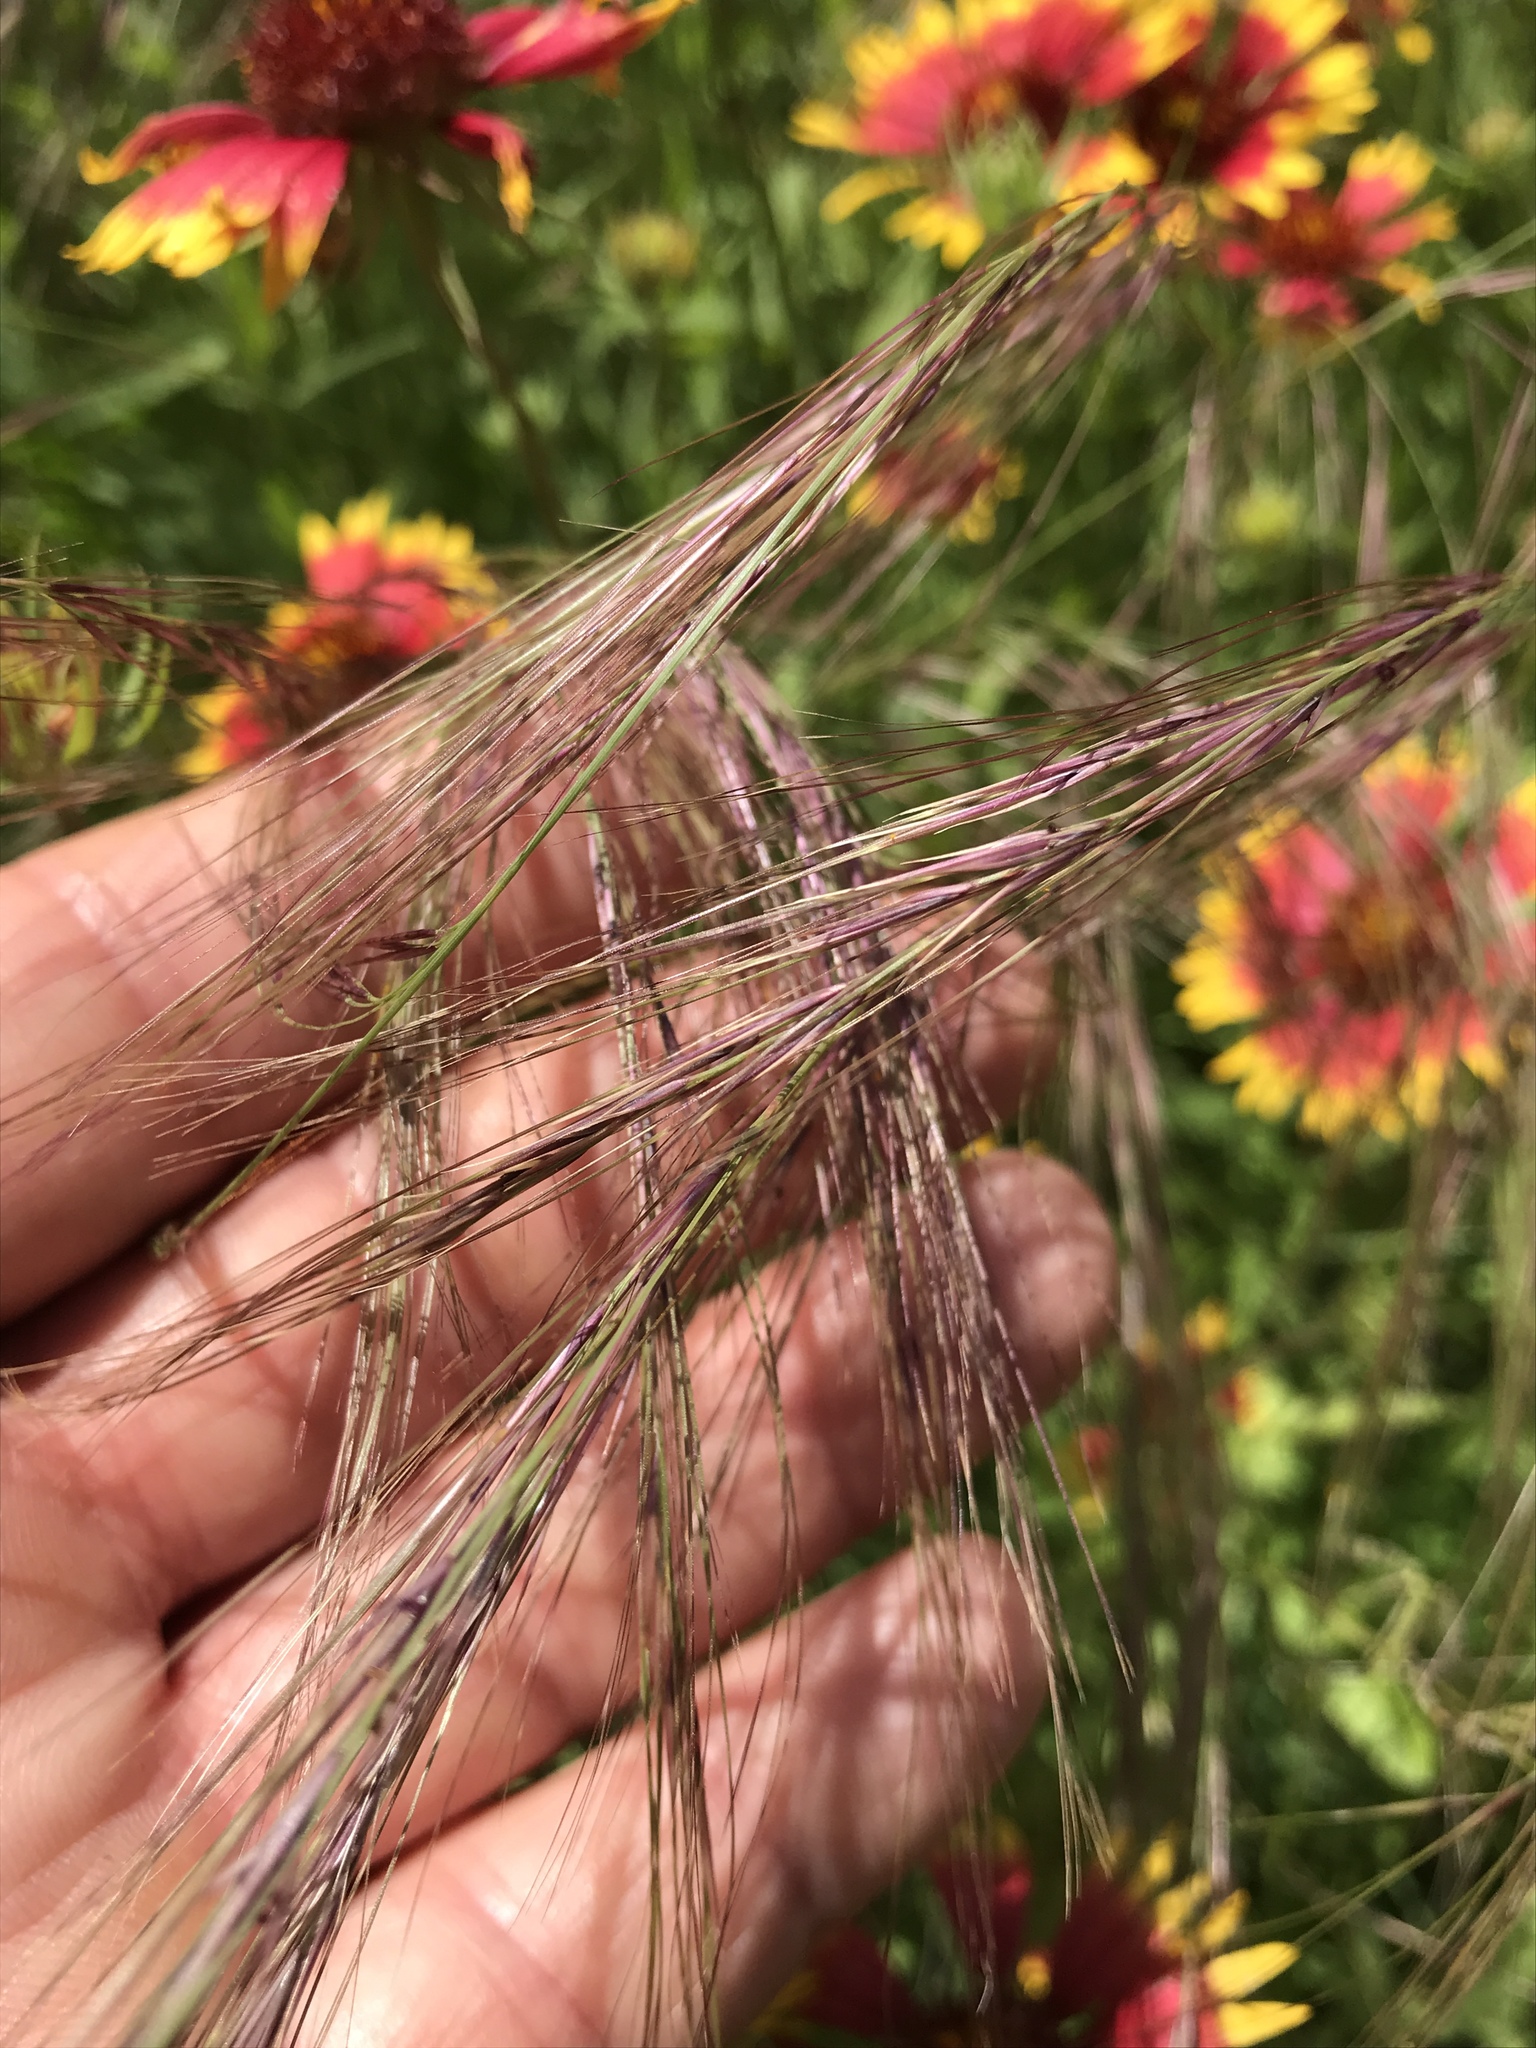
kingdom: Plantae
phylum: Tracheophyta
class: Liliopsida
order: Poales
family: Poaceae
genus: Aristida
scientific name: Aristida purpurea
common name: Purple threeawn
